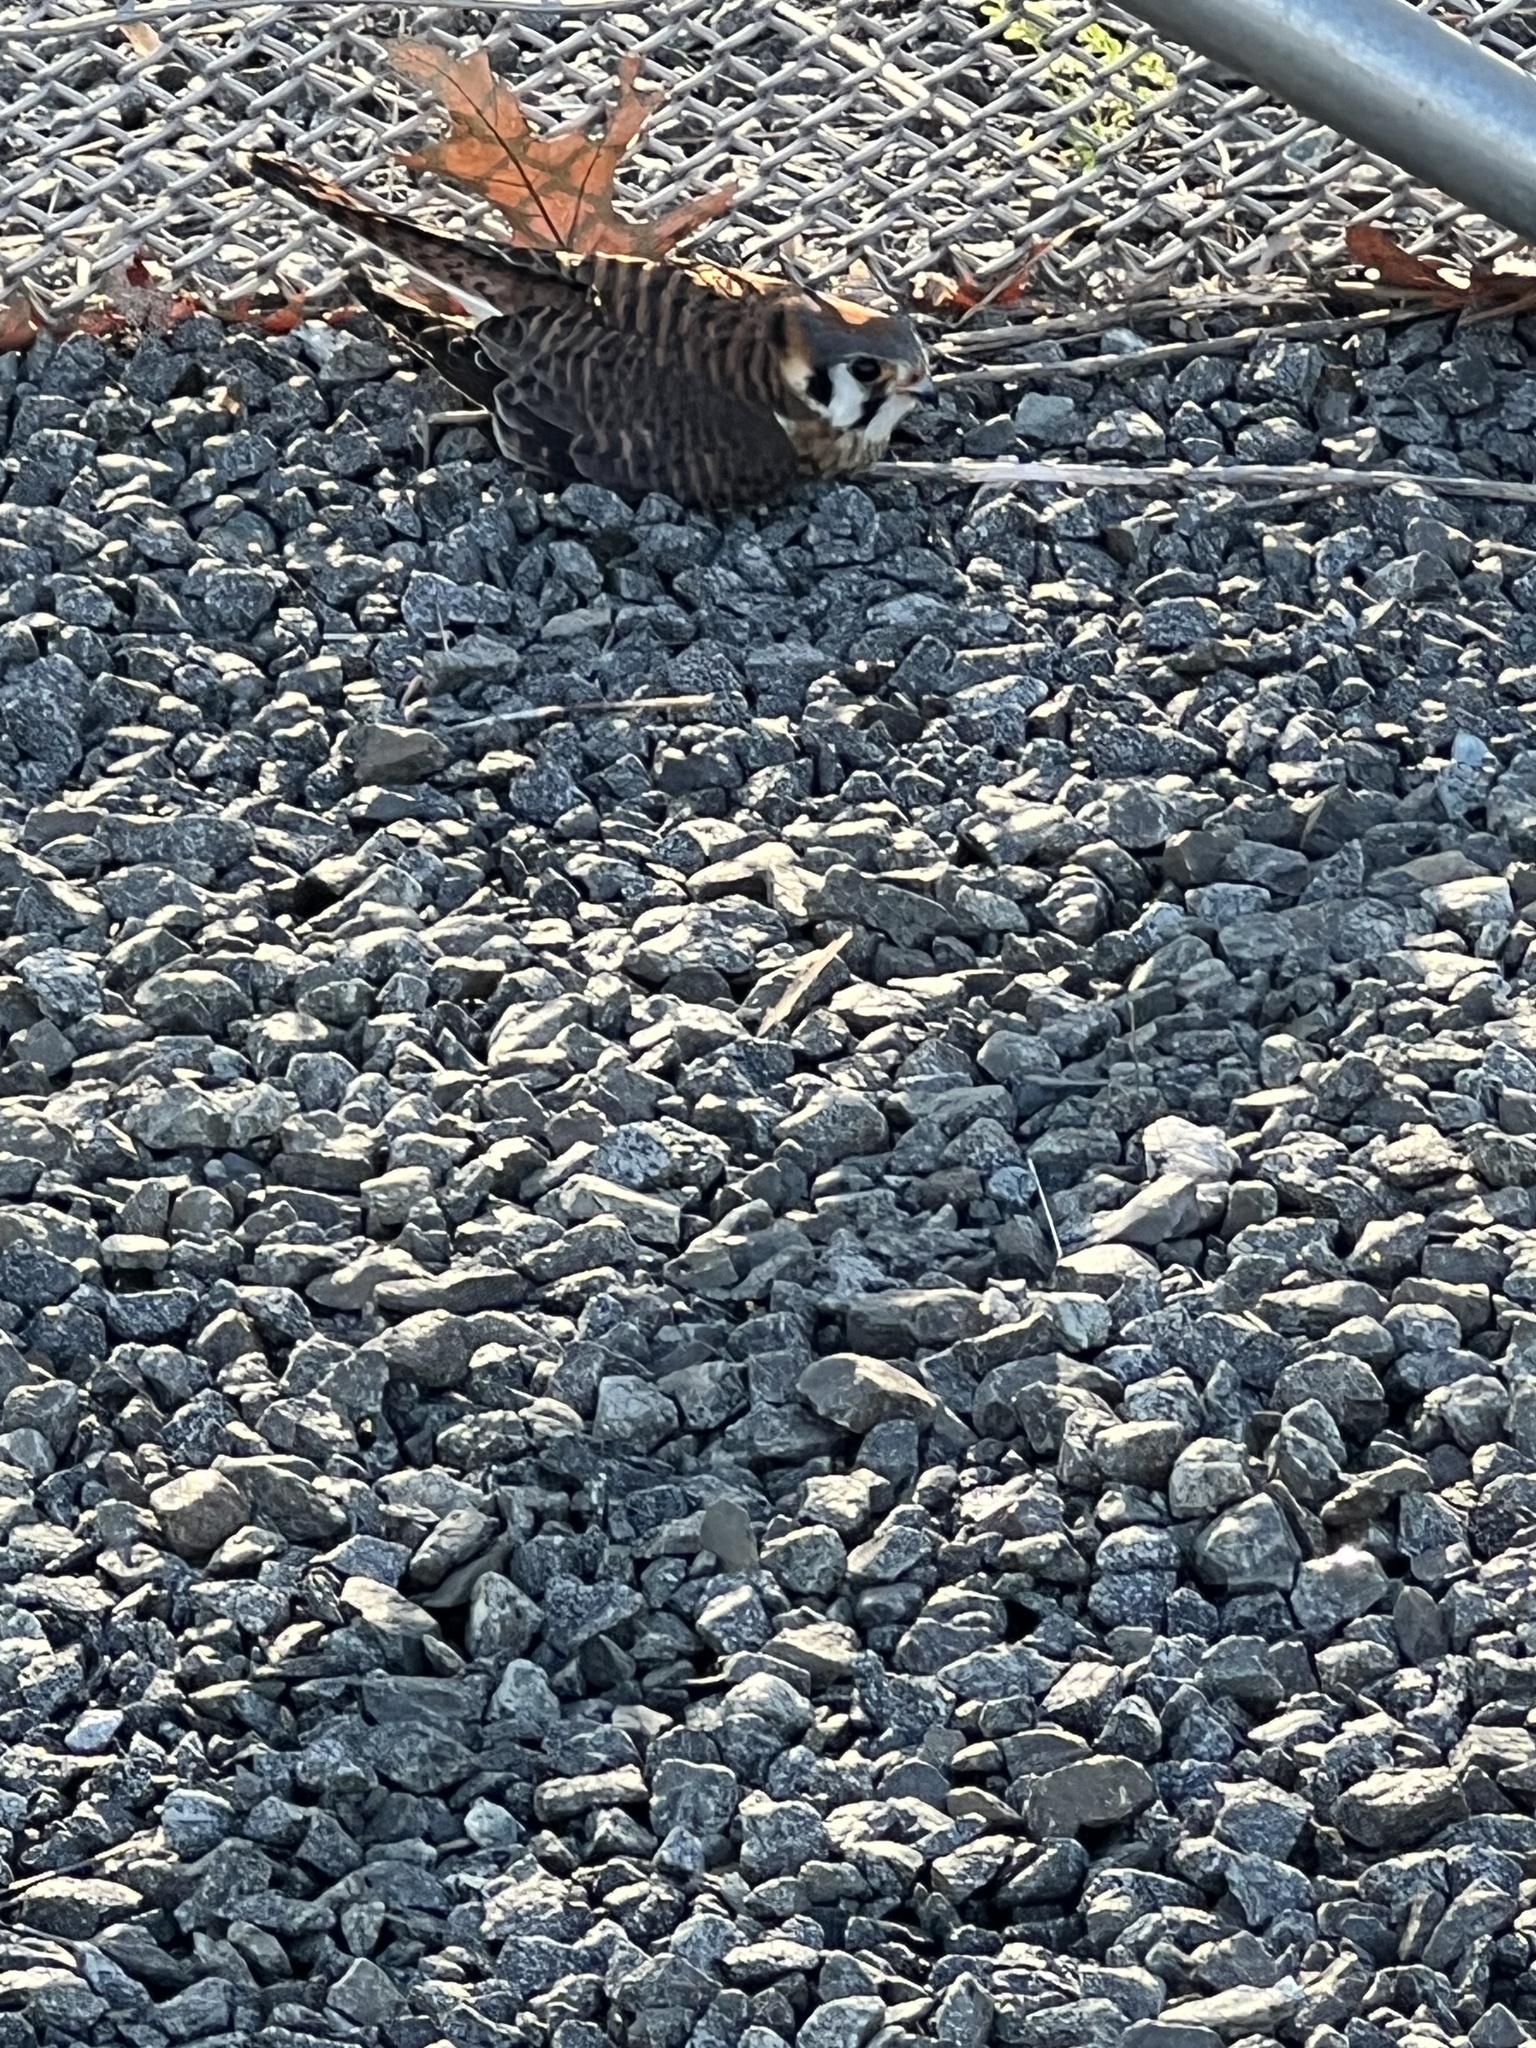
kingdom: Animalia
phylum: Chordata
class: Aves
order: Falconiformes
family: Falconidae
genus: Falco
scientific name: Falco sparverius
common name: American kestrel
